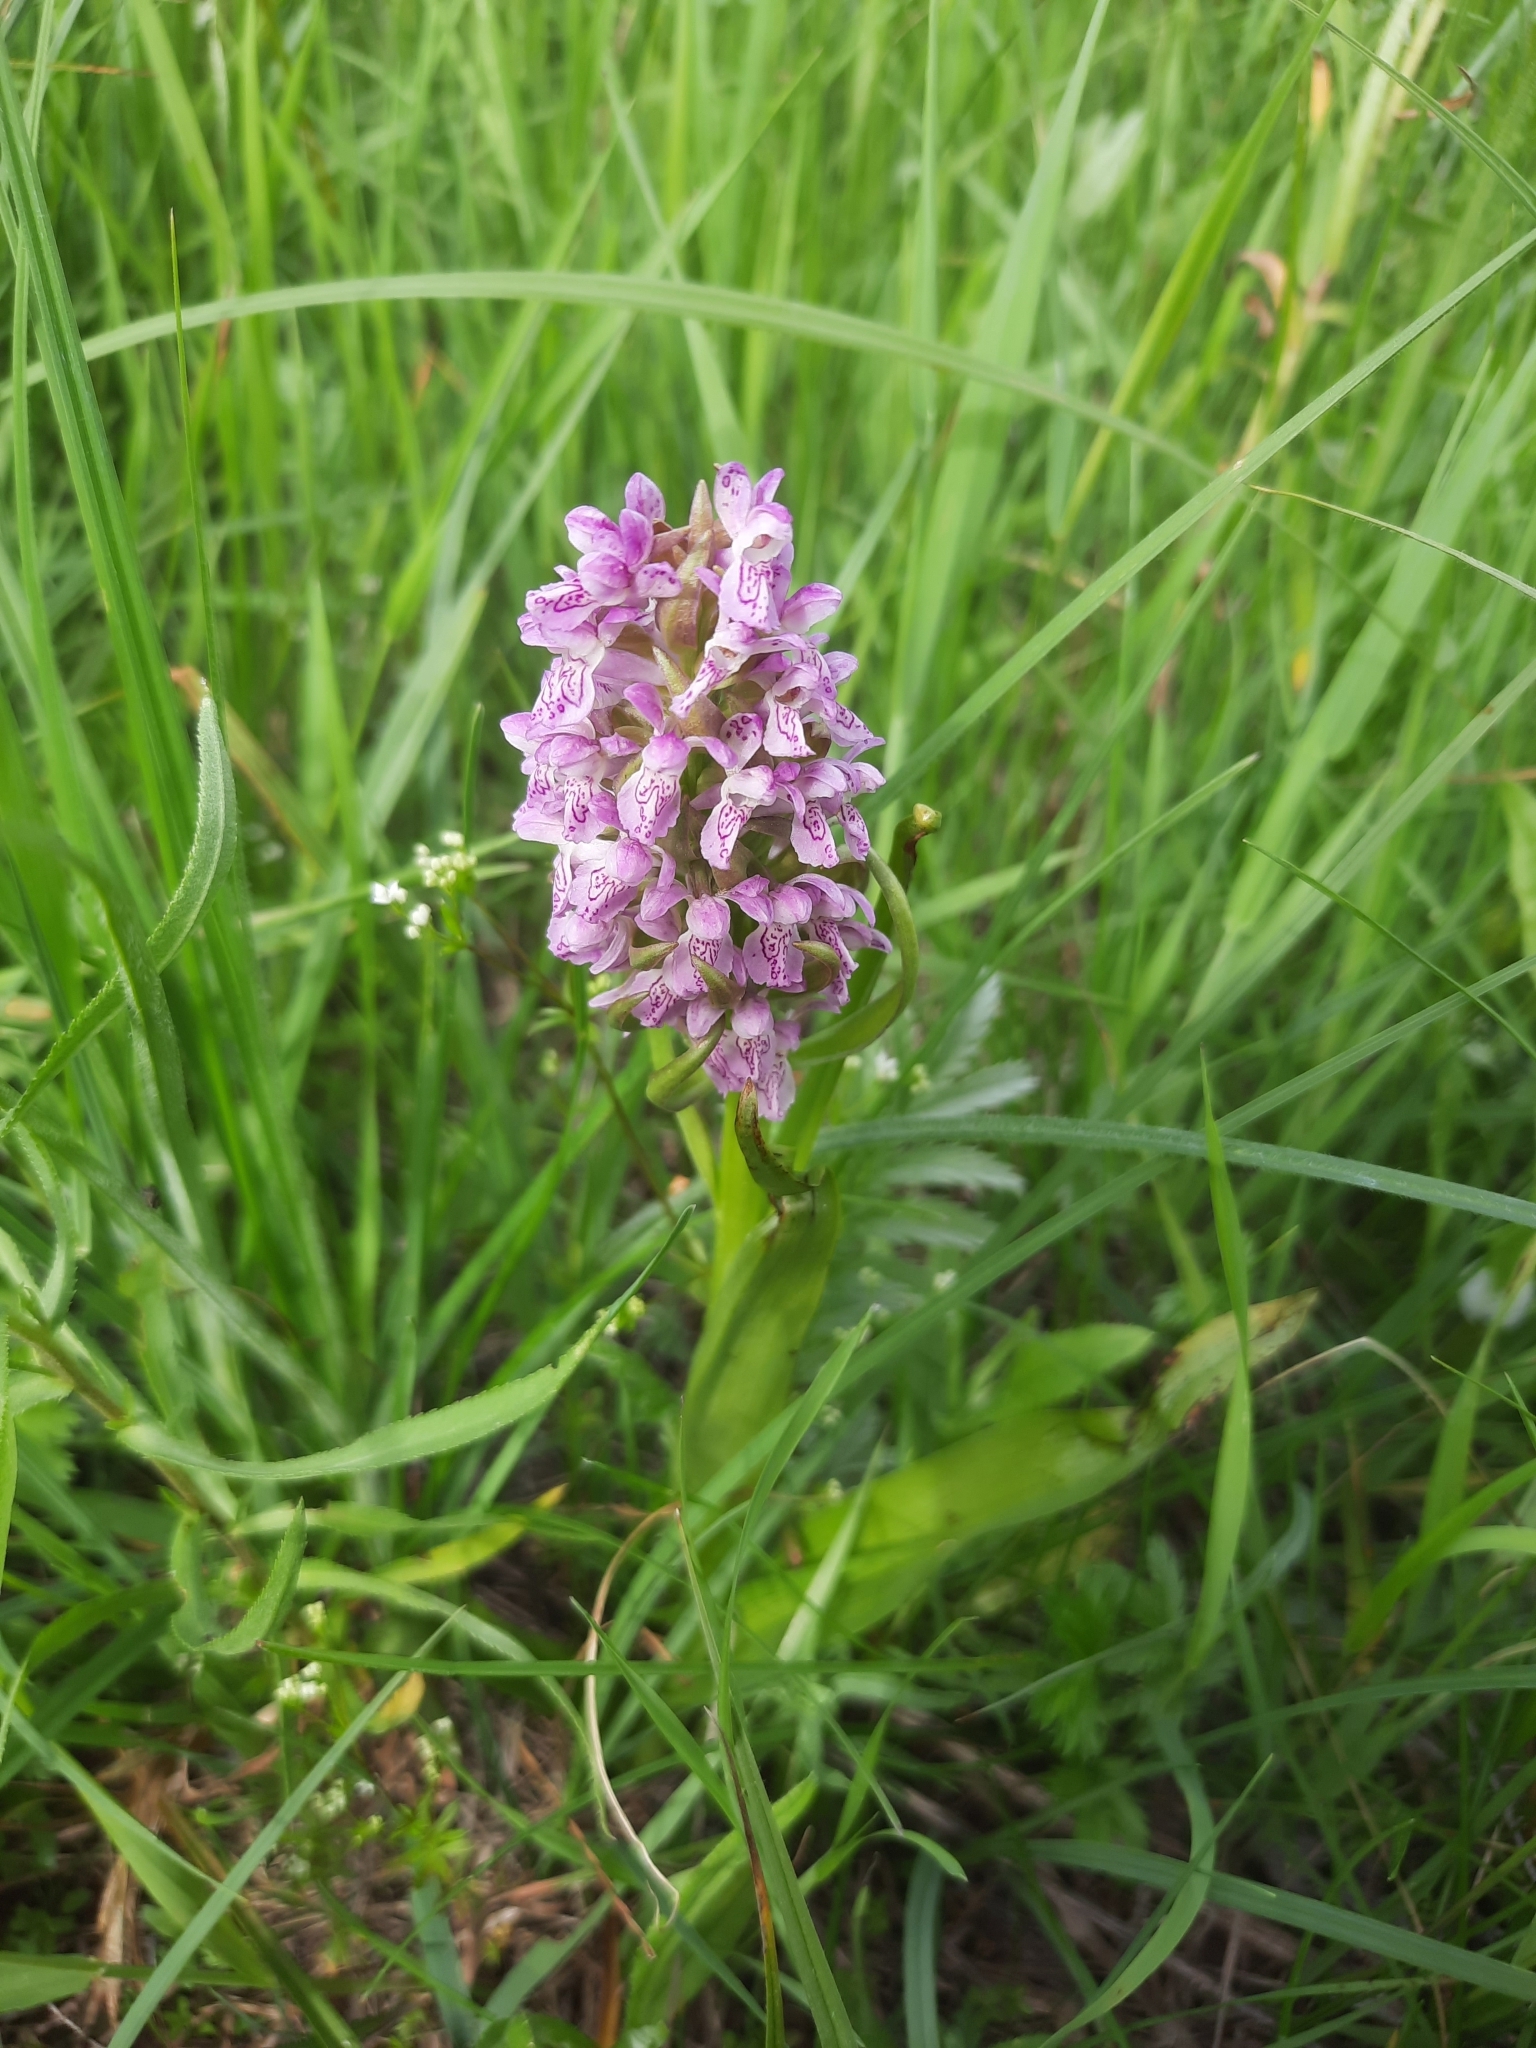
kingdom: Plantae
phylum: Tracheophyta
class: Liliopsida
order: Asparagales
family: Orchidaceae
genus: Dactylorhiza
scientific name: Dactylorhiza incarnata
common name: Early marsh-orchid
